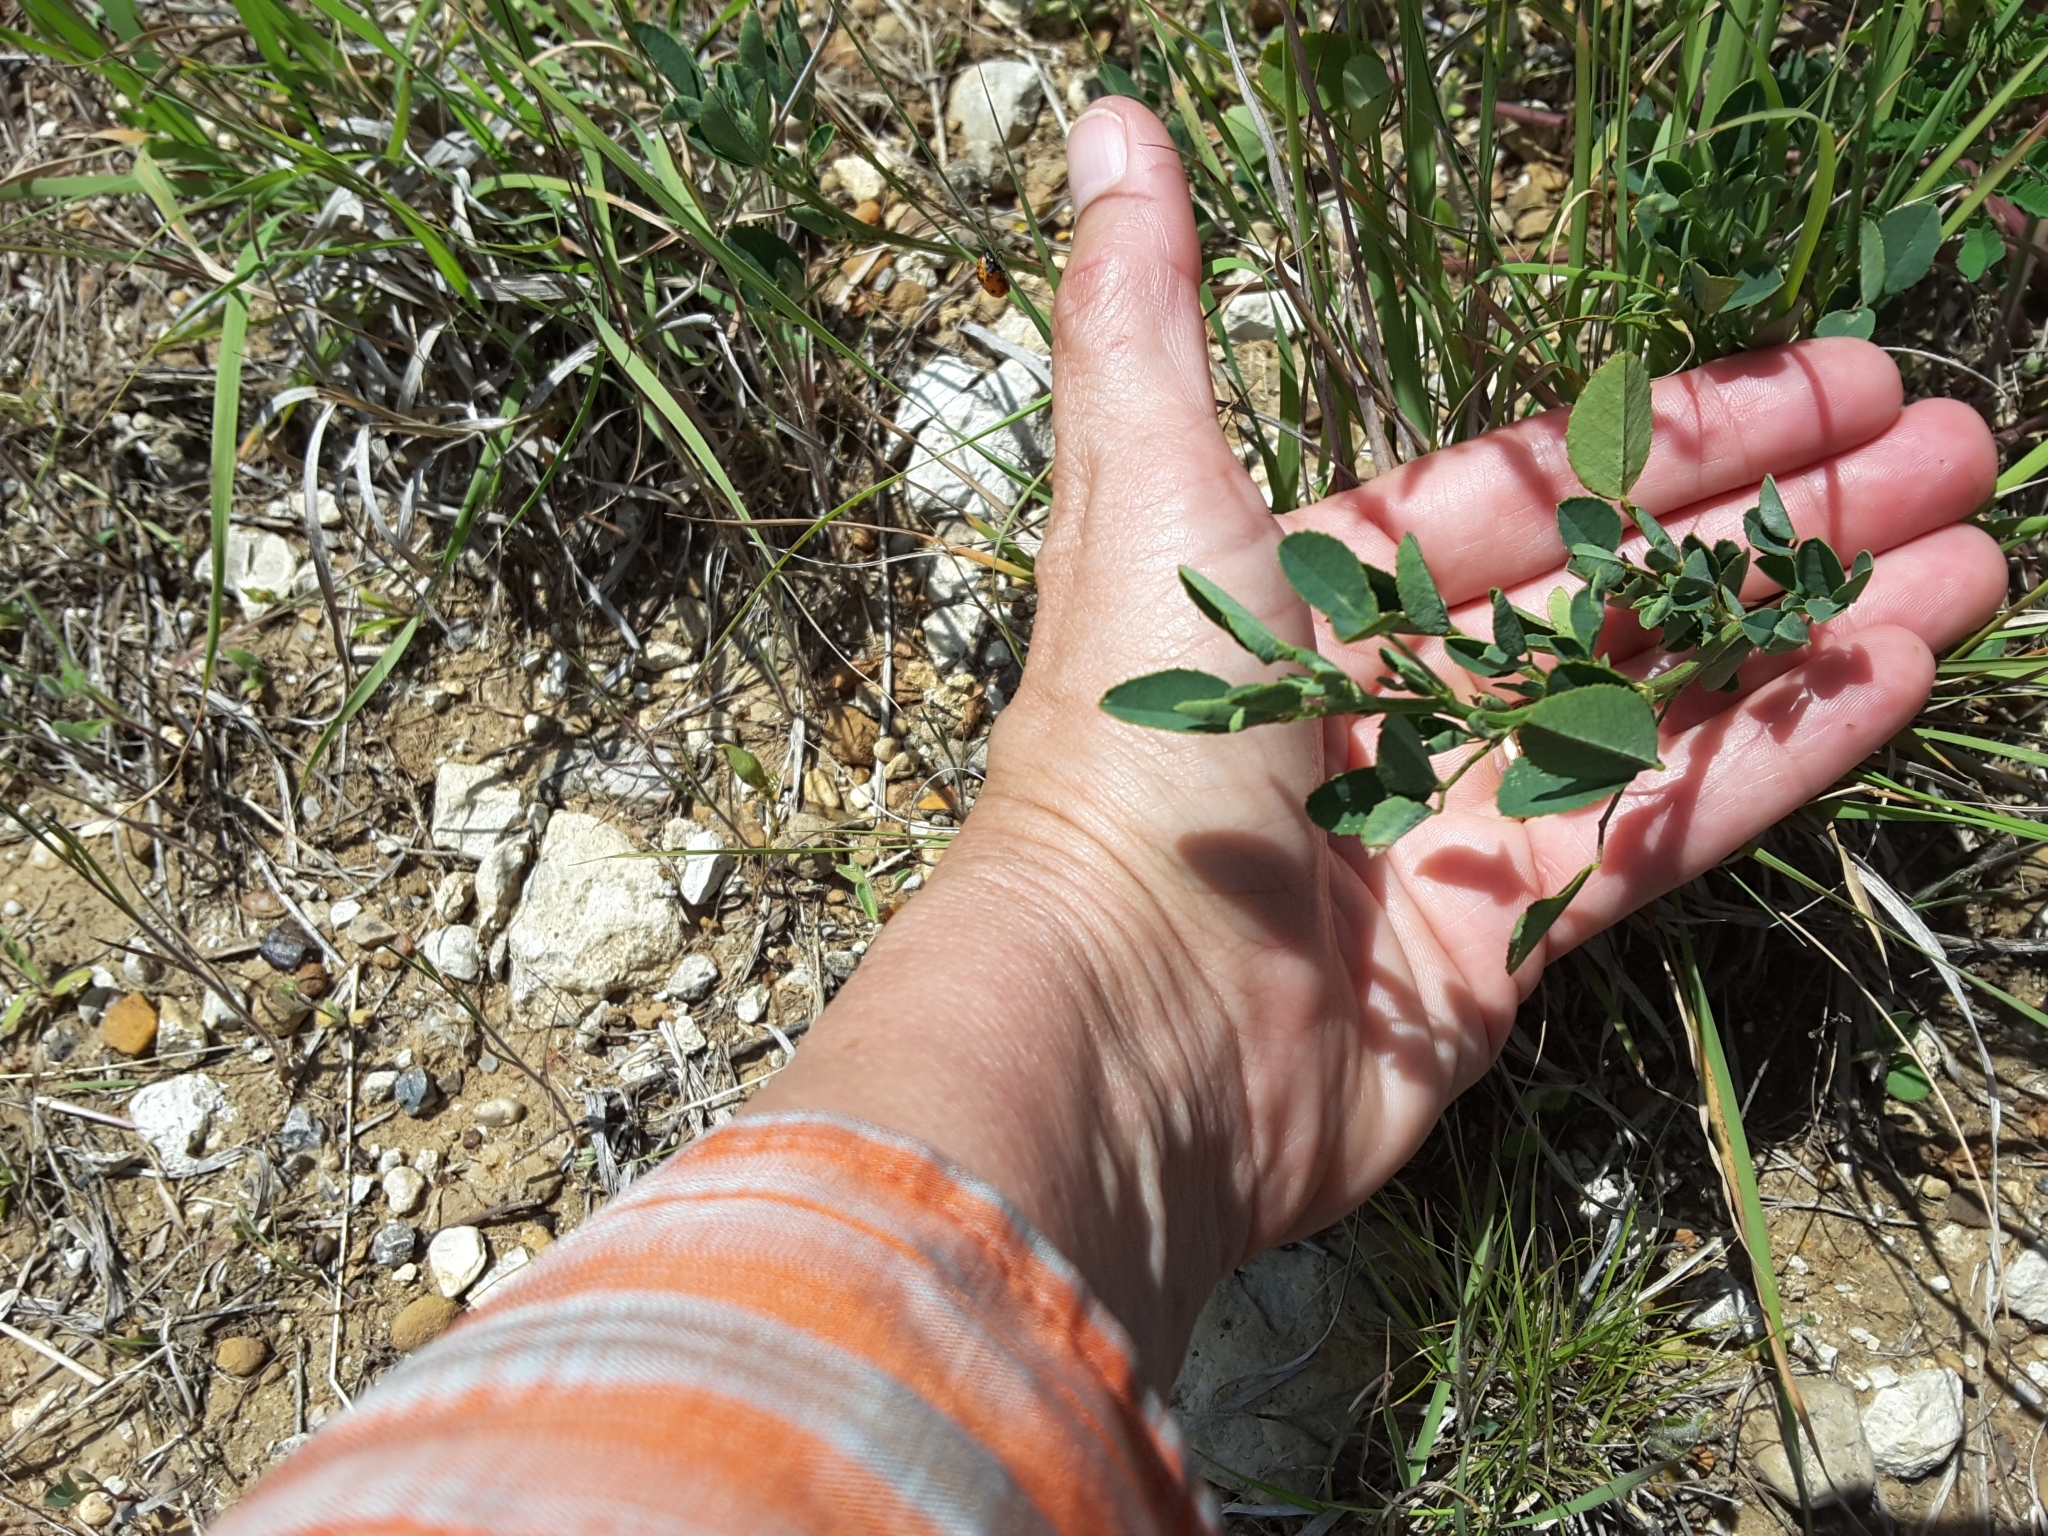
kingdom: Plantae
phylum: Tracheophyta
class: Magnoliopsida
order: Fabales
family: Fabaceae
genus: Melilotus
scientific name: Melilotus officinalis
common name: Sweetclover
